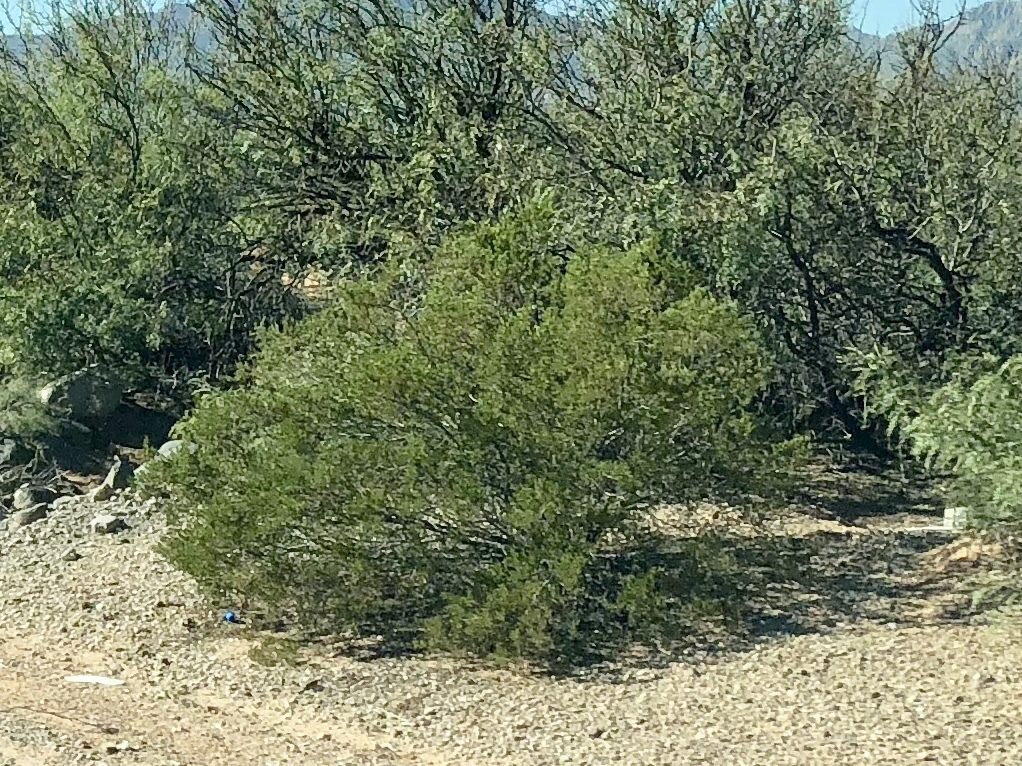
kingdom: Plantae
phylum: Tracheophyta
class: Magnoliopsida
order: Zygophyllales
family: Zygophyllaceae
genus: Larrea
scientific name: Larrea tridentata
